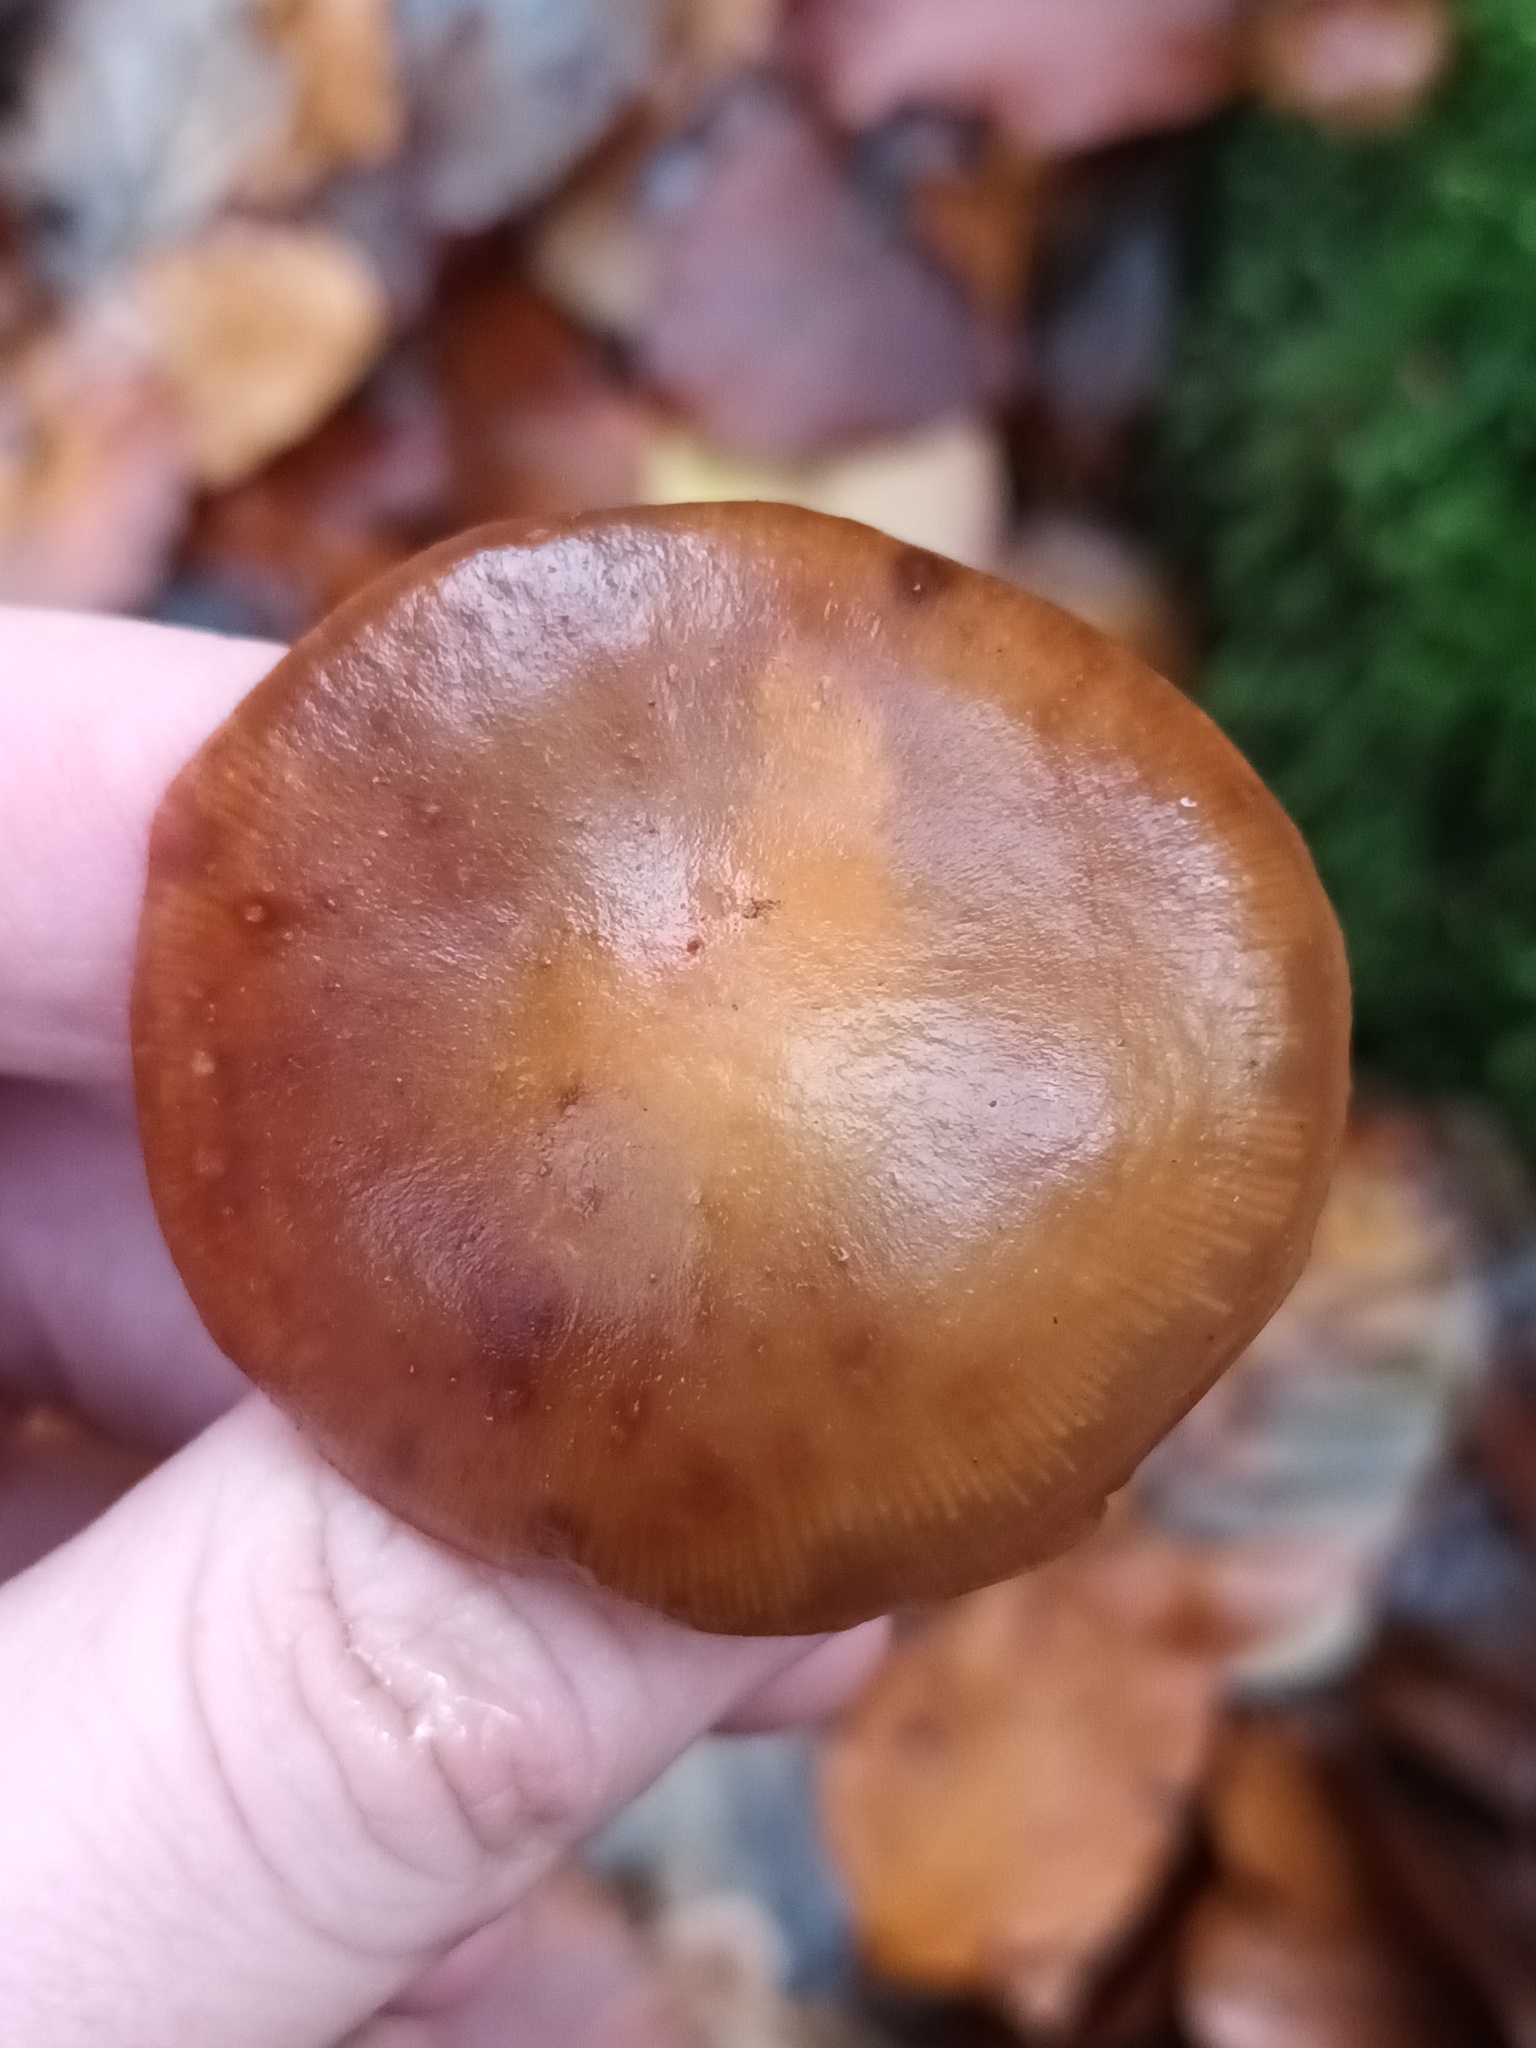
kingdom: Fungi
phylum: Basidiomycota
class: Agaricomycetes
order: Agaricales
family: Strophariaceae
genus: Kuehneromyces
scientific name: Kuehneromyces mutabilis
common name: Sheathed woodtuft
